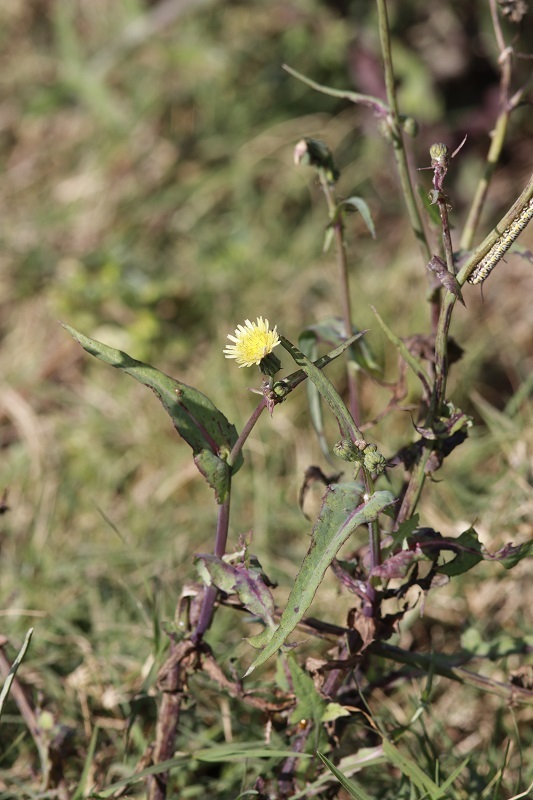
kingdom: Plantae
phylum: Tracheophyta
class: Magnoliopsida
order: Asterales
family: Asteraceae
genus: Sonchus
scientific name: Sonchus oleraceus
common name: Common sowthistle
